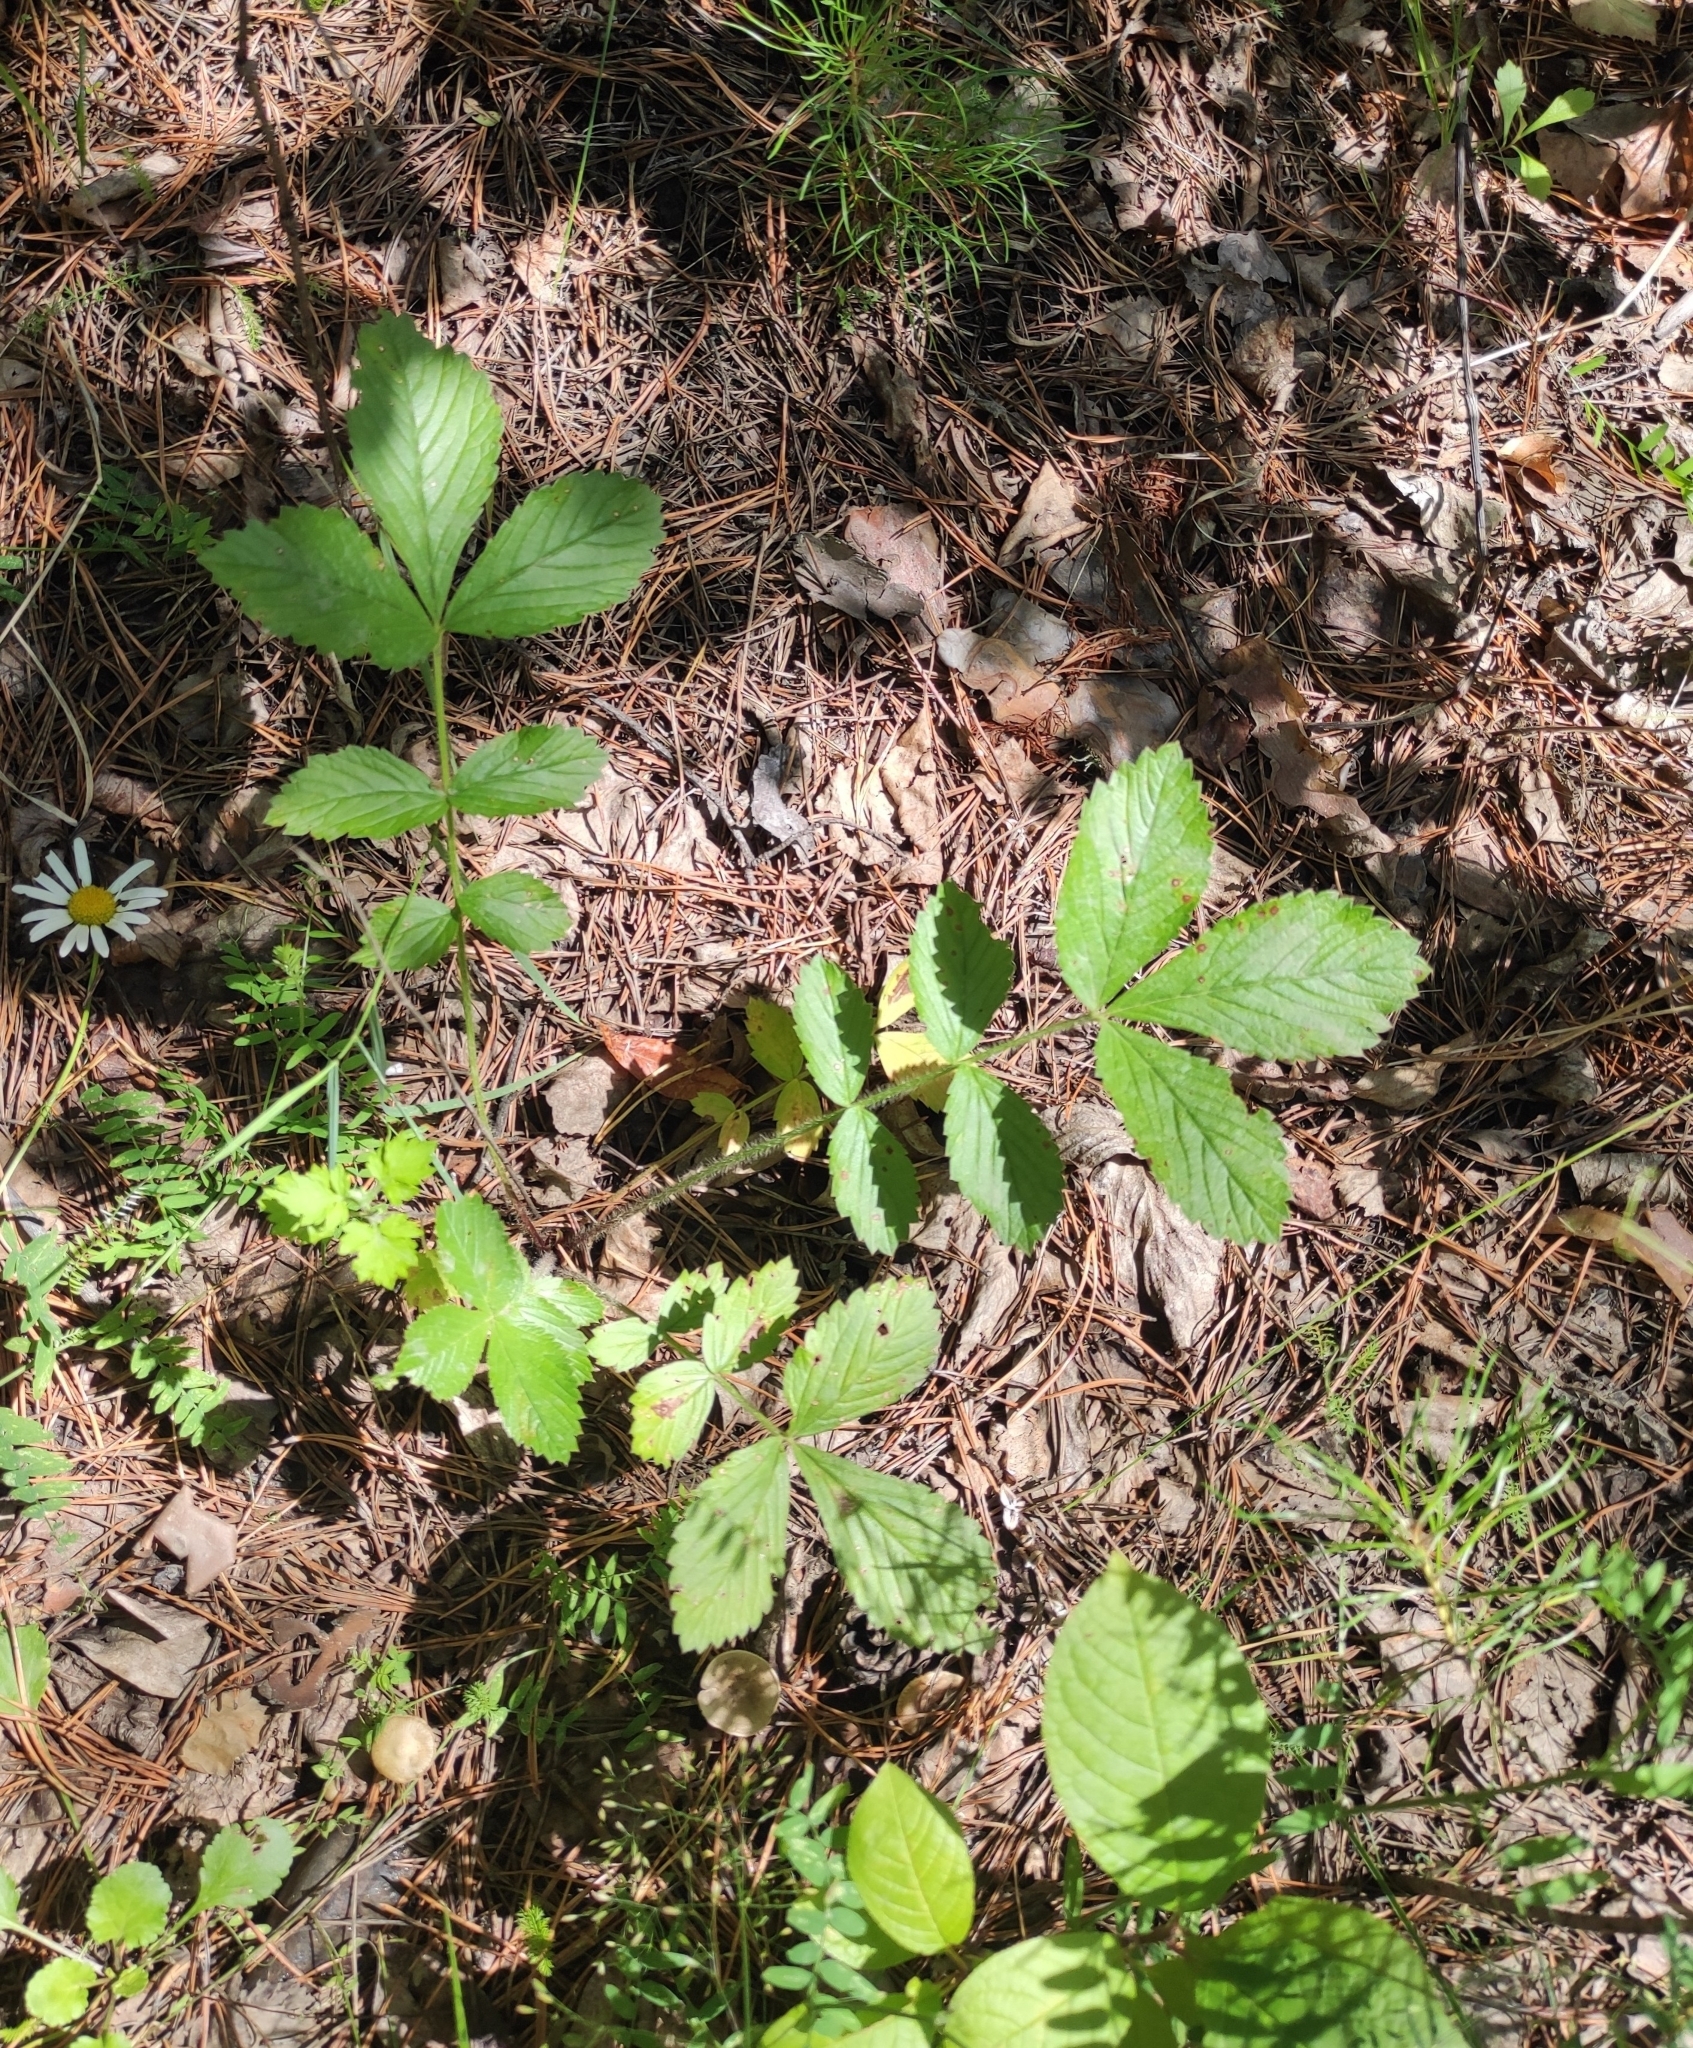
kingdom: Plantae
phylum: Tracheophyta
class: Magnoliopsida
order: Rosales
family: Rosaceae
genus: Potentilla
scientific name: Potentilla fragarioides
